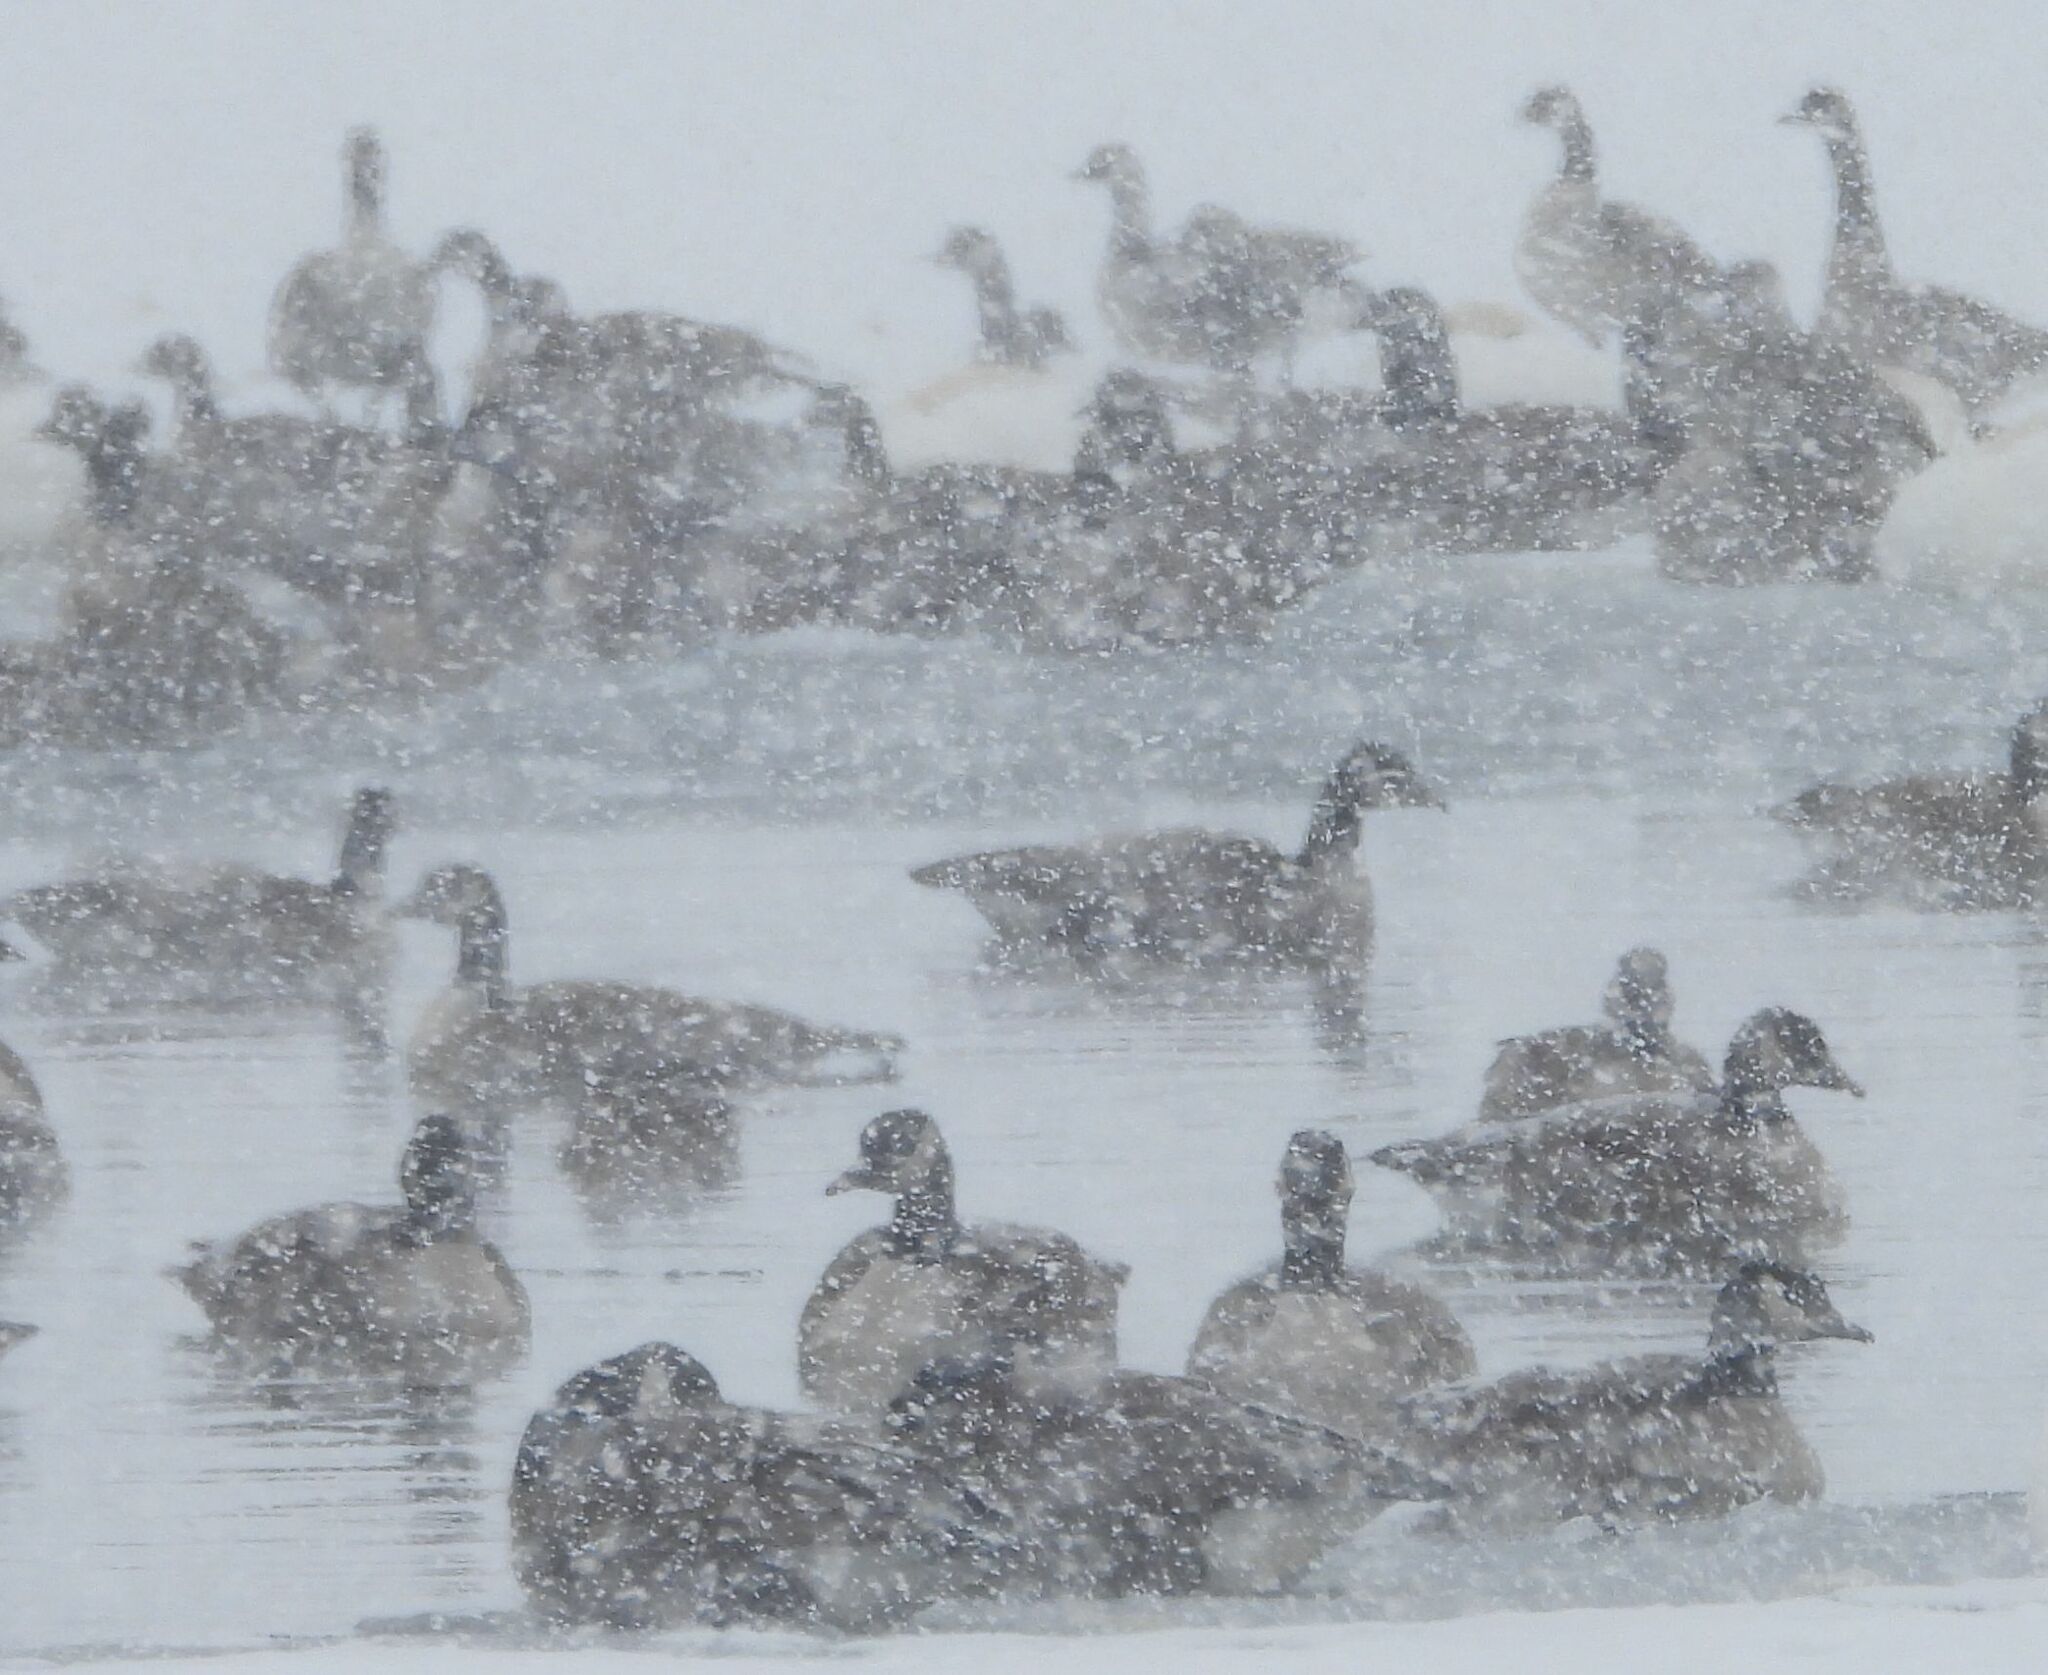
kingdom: Animalia
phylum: Chordata
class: Aves
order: Anseriformes
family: Anatidae
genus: Branta
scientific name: Branta canadensis
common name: Canada goose
